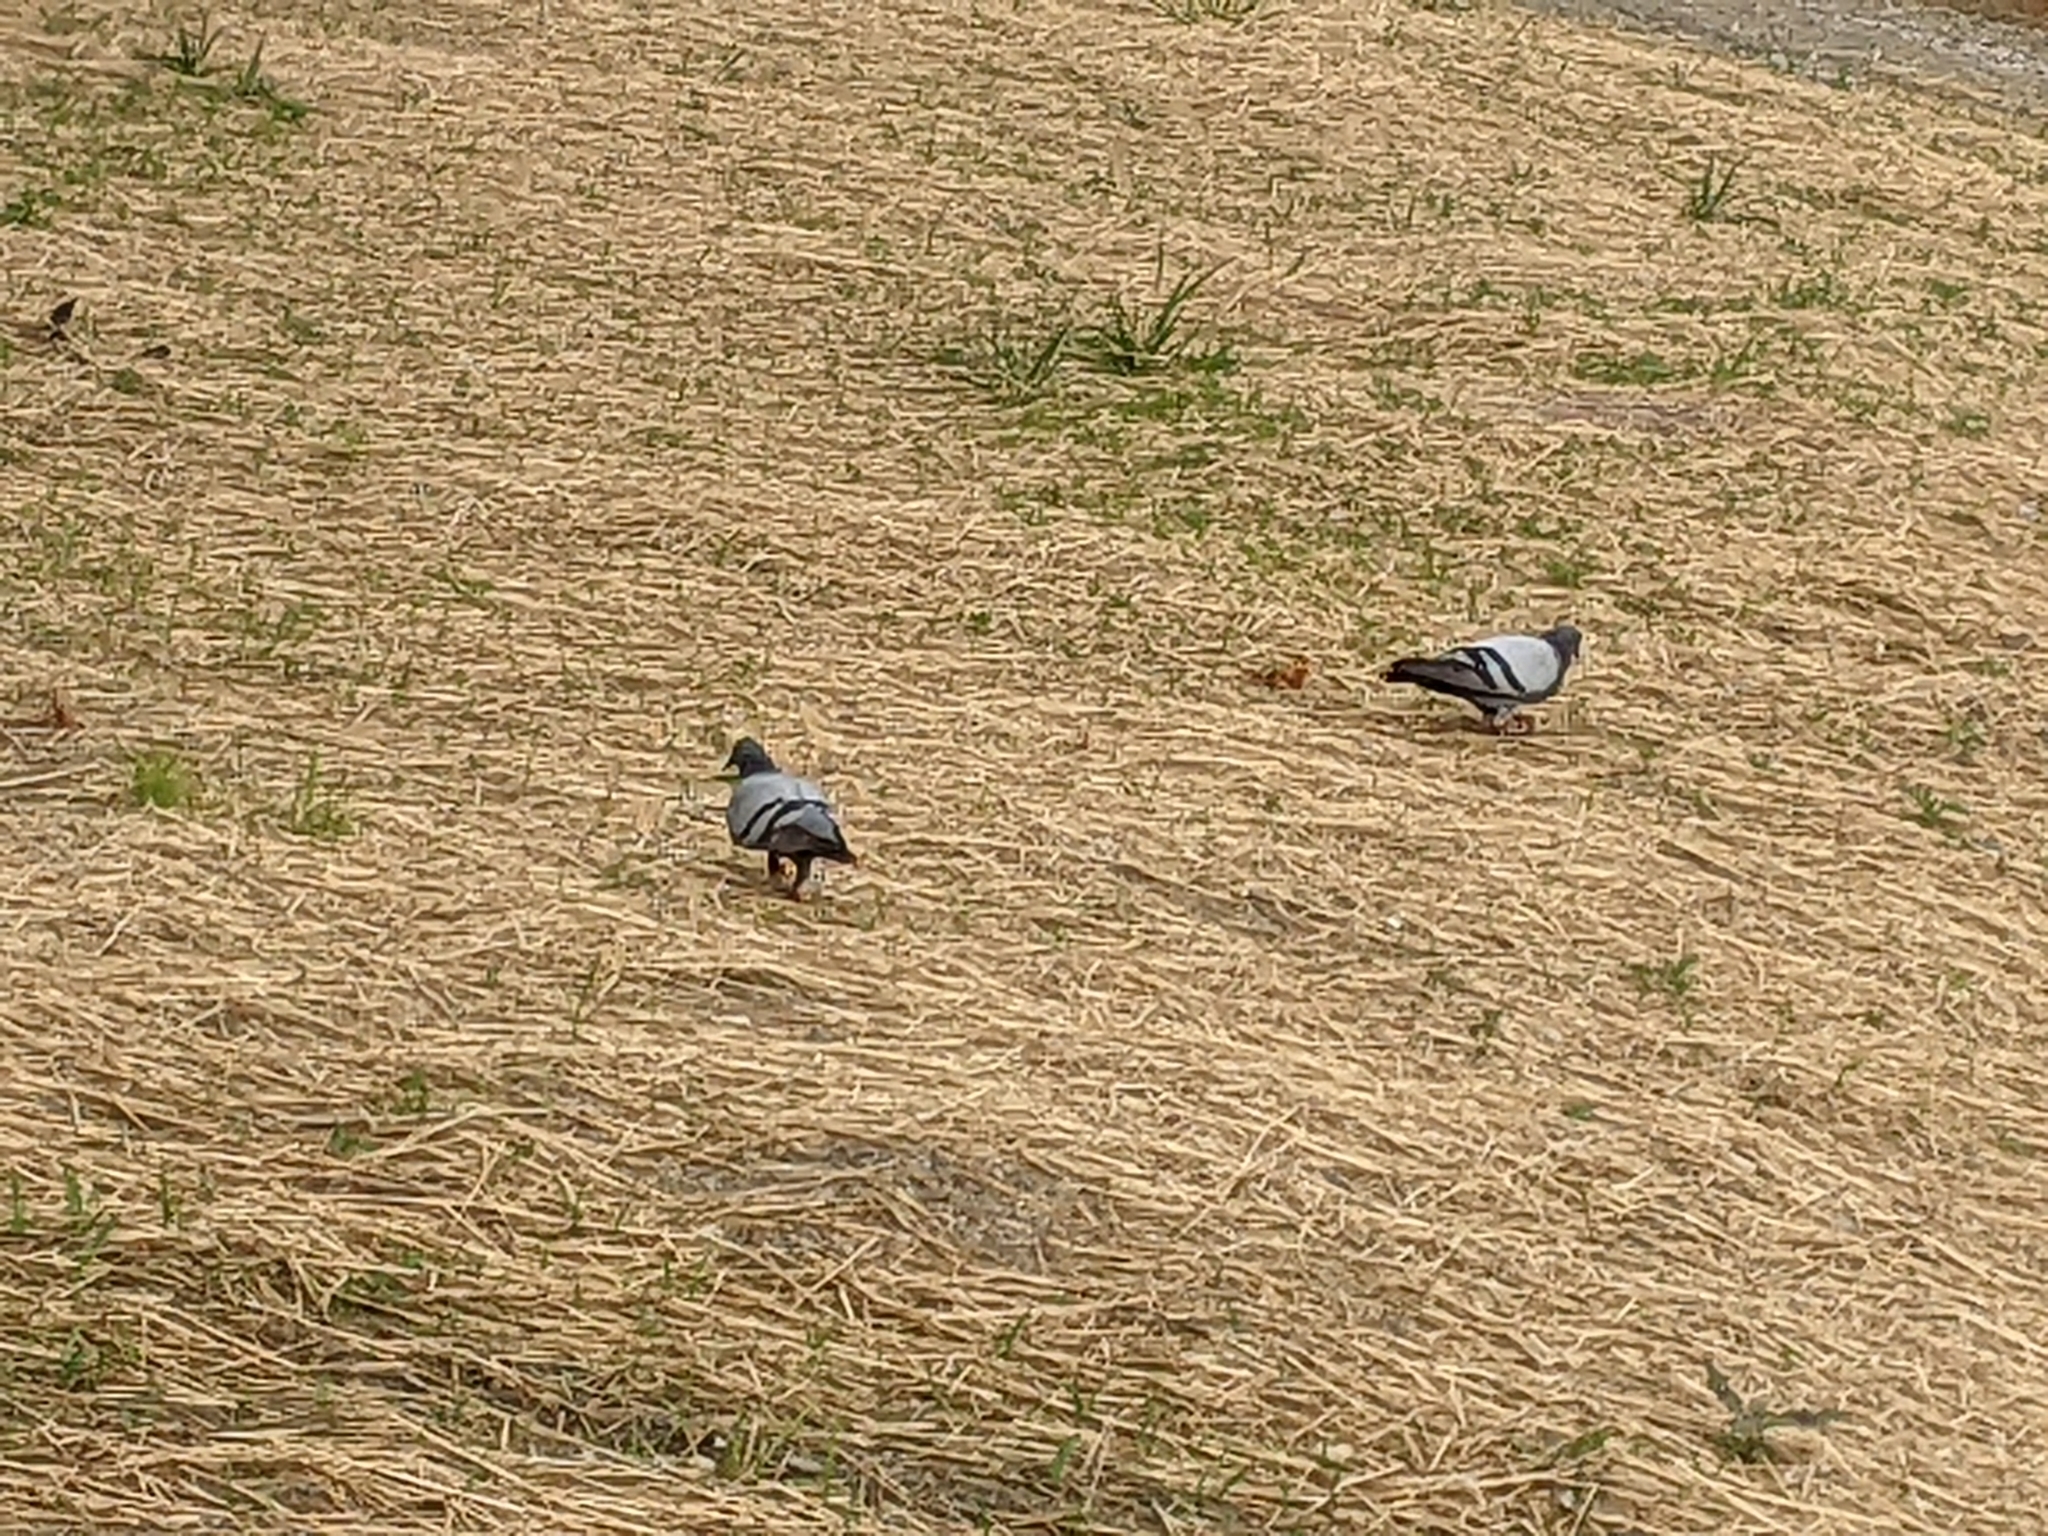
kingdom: Animalia
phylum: Chordata
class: Aves
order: Columbiformes
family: Columbidae
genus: Columba
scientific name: Columba livia
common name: Rock pigeon
